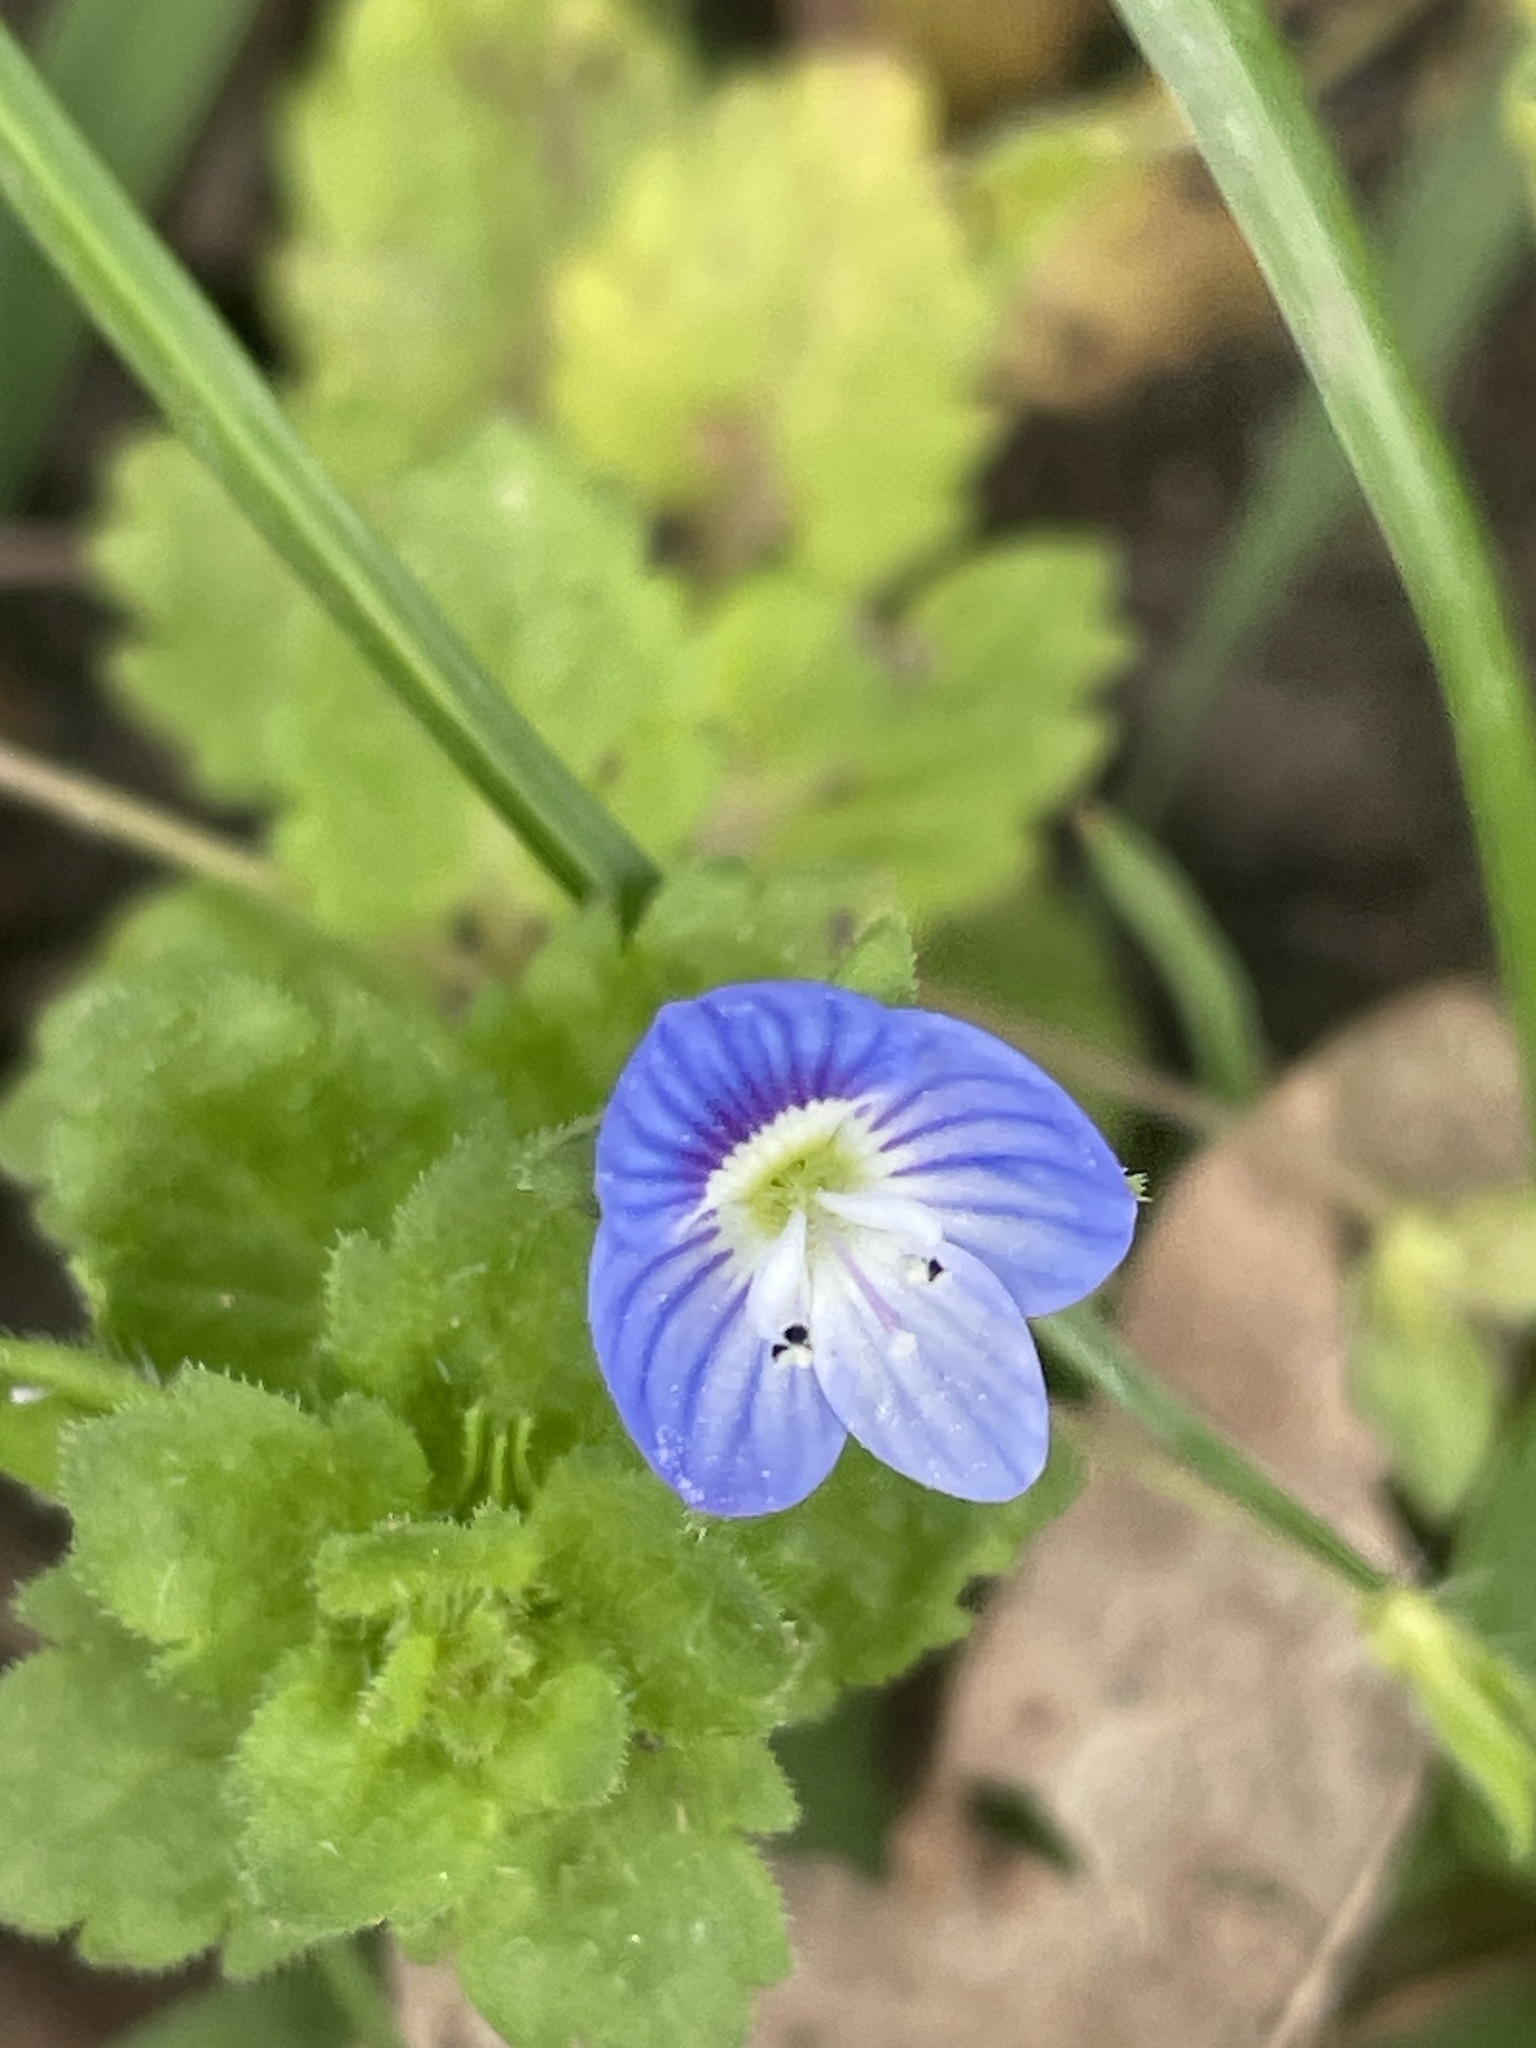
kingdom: Plantae
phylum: Tracheophyta
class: Magnoliopsida
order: Lamiales
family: Plantaginaceae
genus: Veronica
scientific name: Veronica persica
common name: Common field-speedwell
